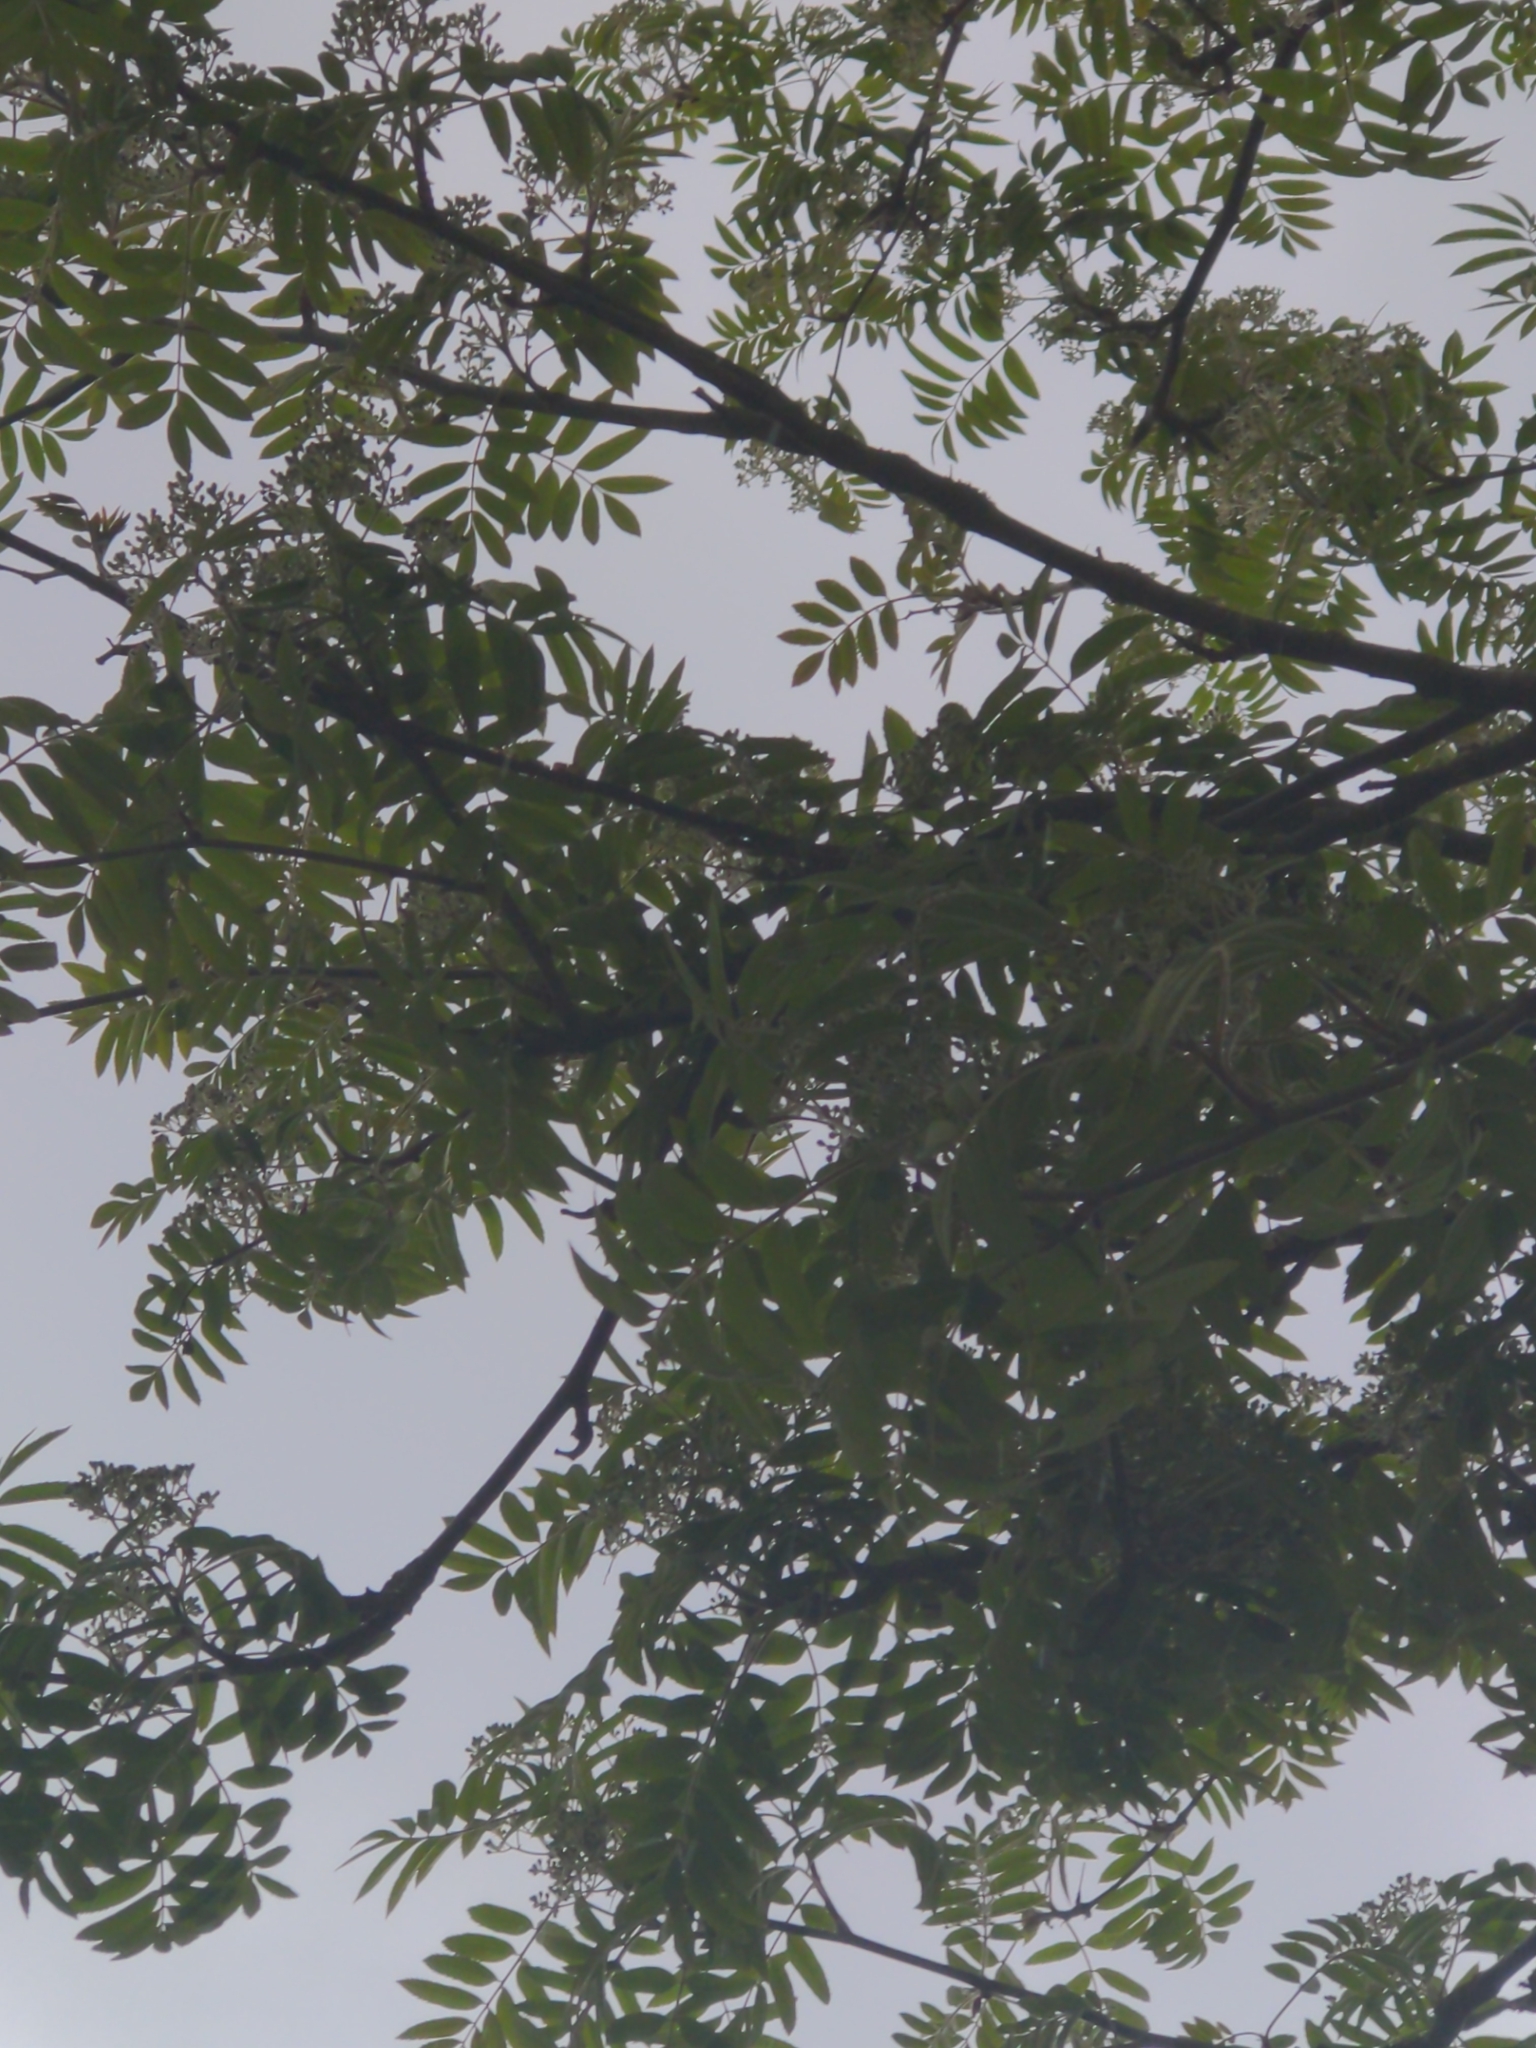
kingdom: Plantae
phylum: Tracheophyta
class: Magnoliopsida
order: Rosales
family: Rosaceae
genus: Sorbus
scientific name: Sorbus aucuparia
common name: Rowan
